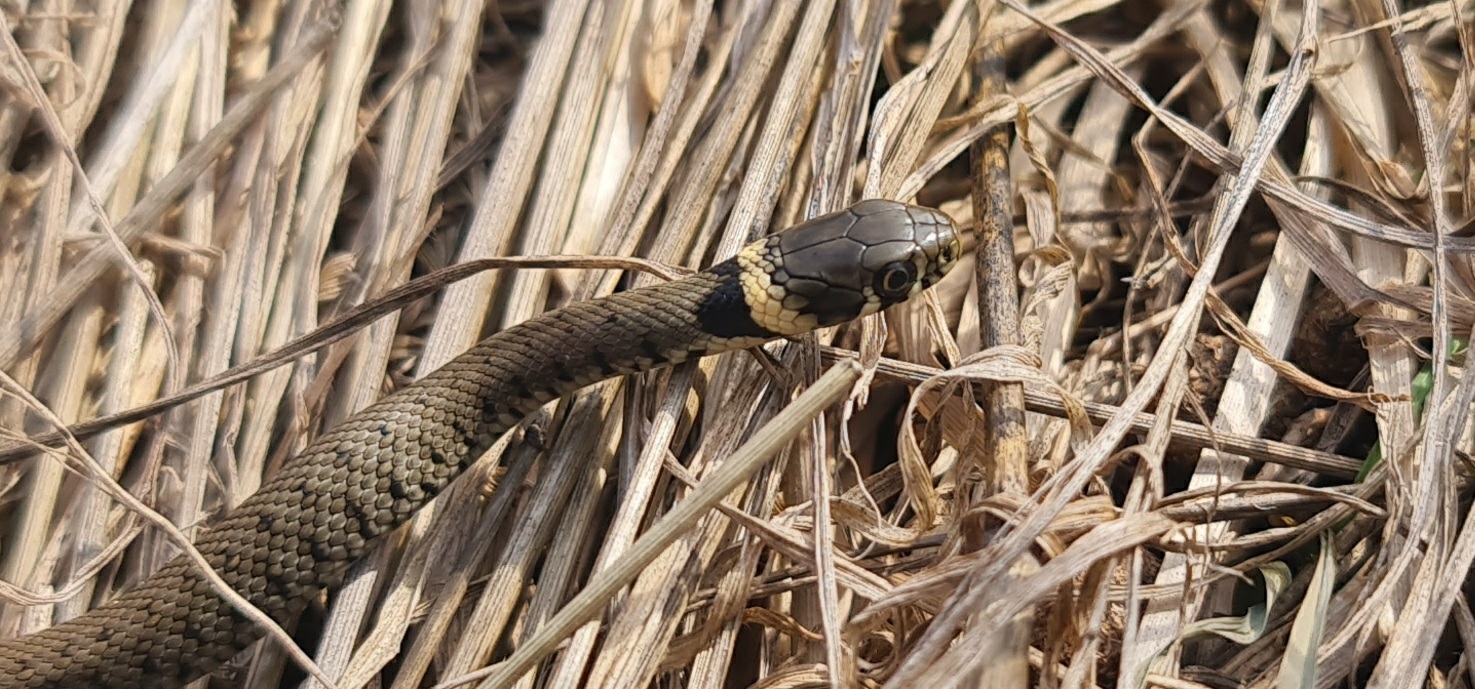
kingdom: Animalia
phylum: Chordata
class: Squamata
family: Colubridae
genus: Natrix
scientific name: Natrix helvetica
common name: Banded grass snake
